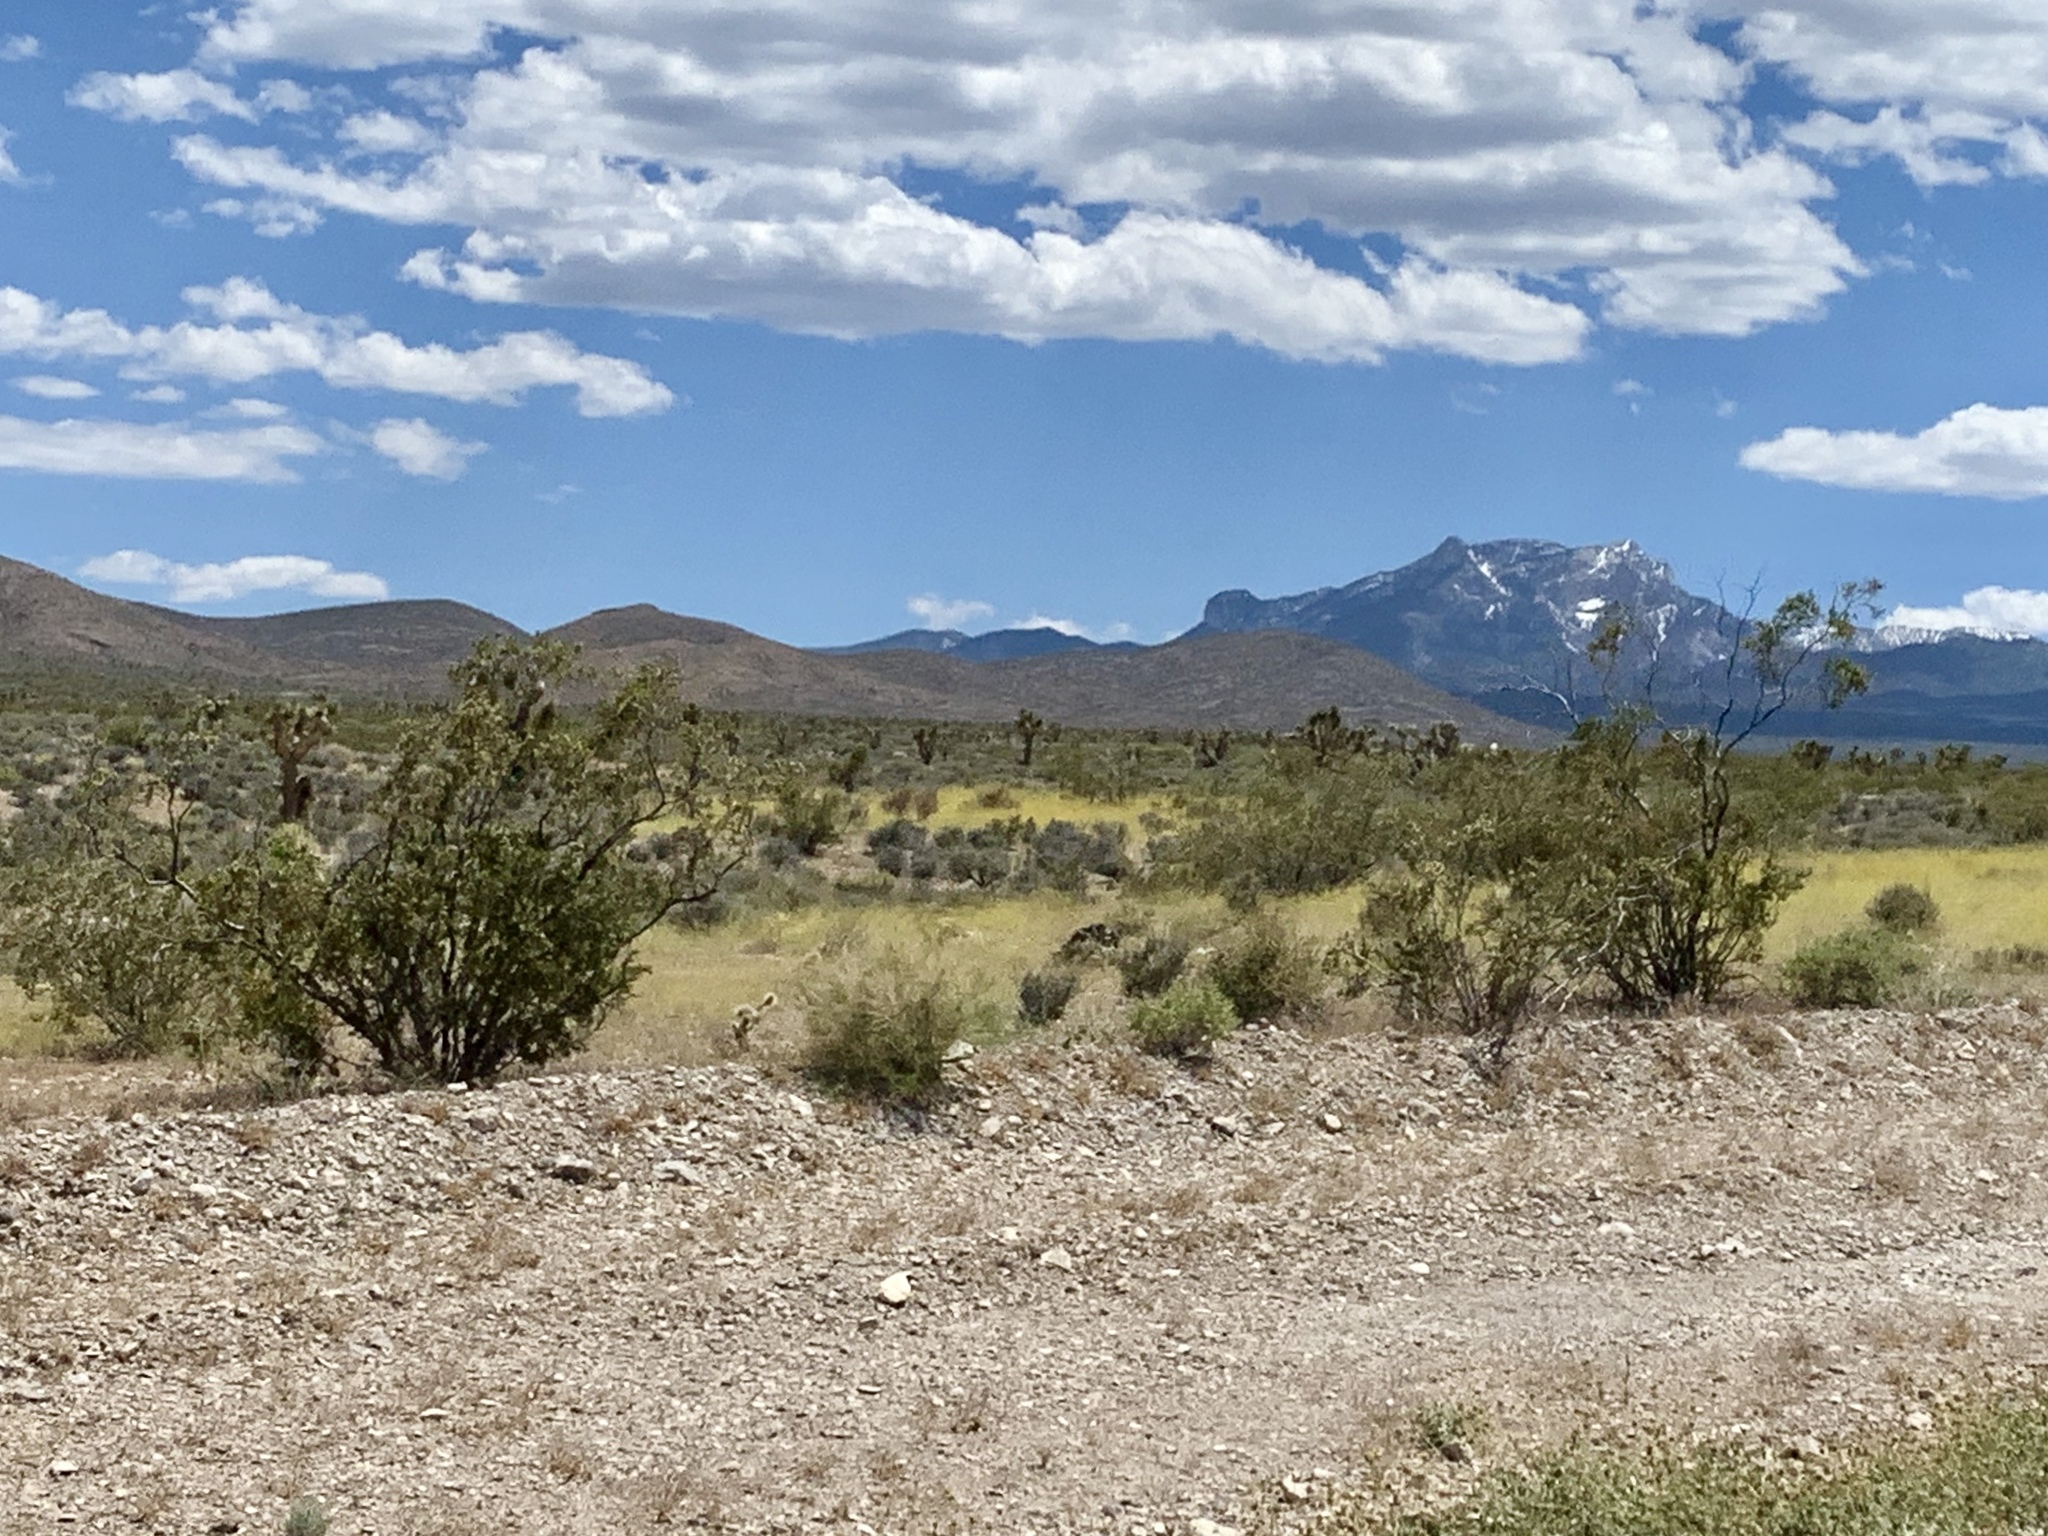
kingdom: Plantae
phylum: Tracheophyta
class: Magnoliopsida
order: Zygophyllales
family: Zygophyllaceae
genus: Larrea
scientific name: Larrea tridentata
